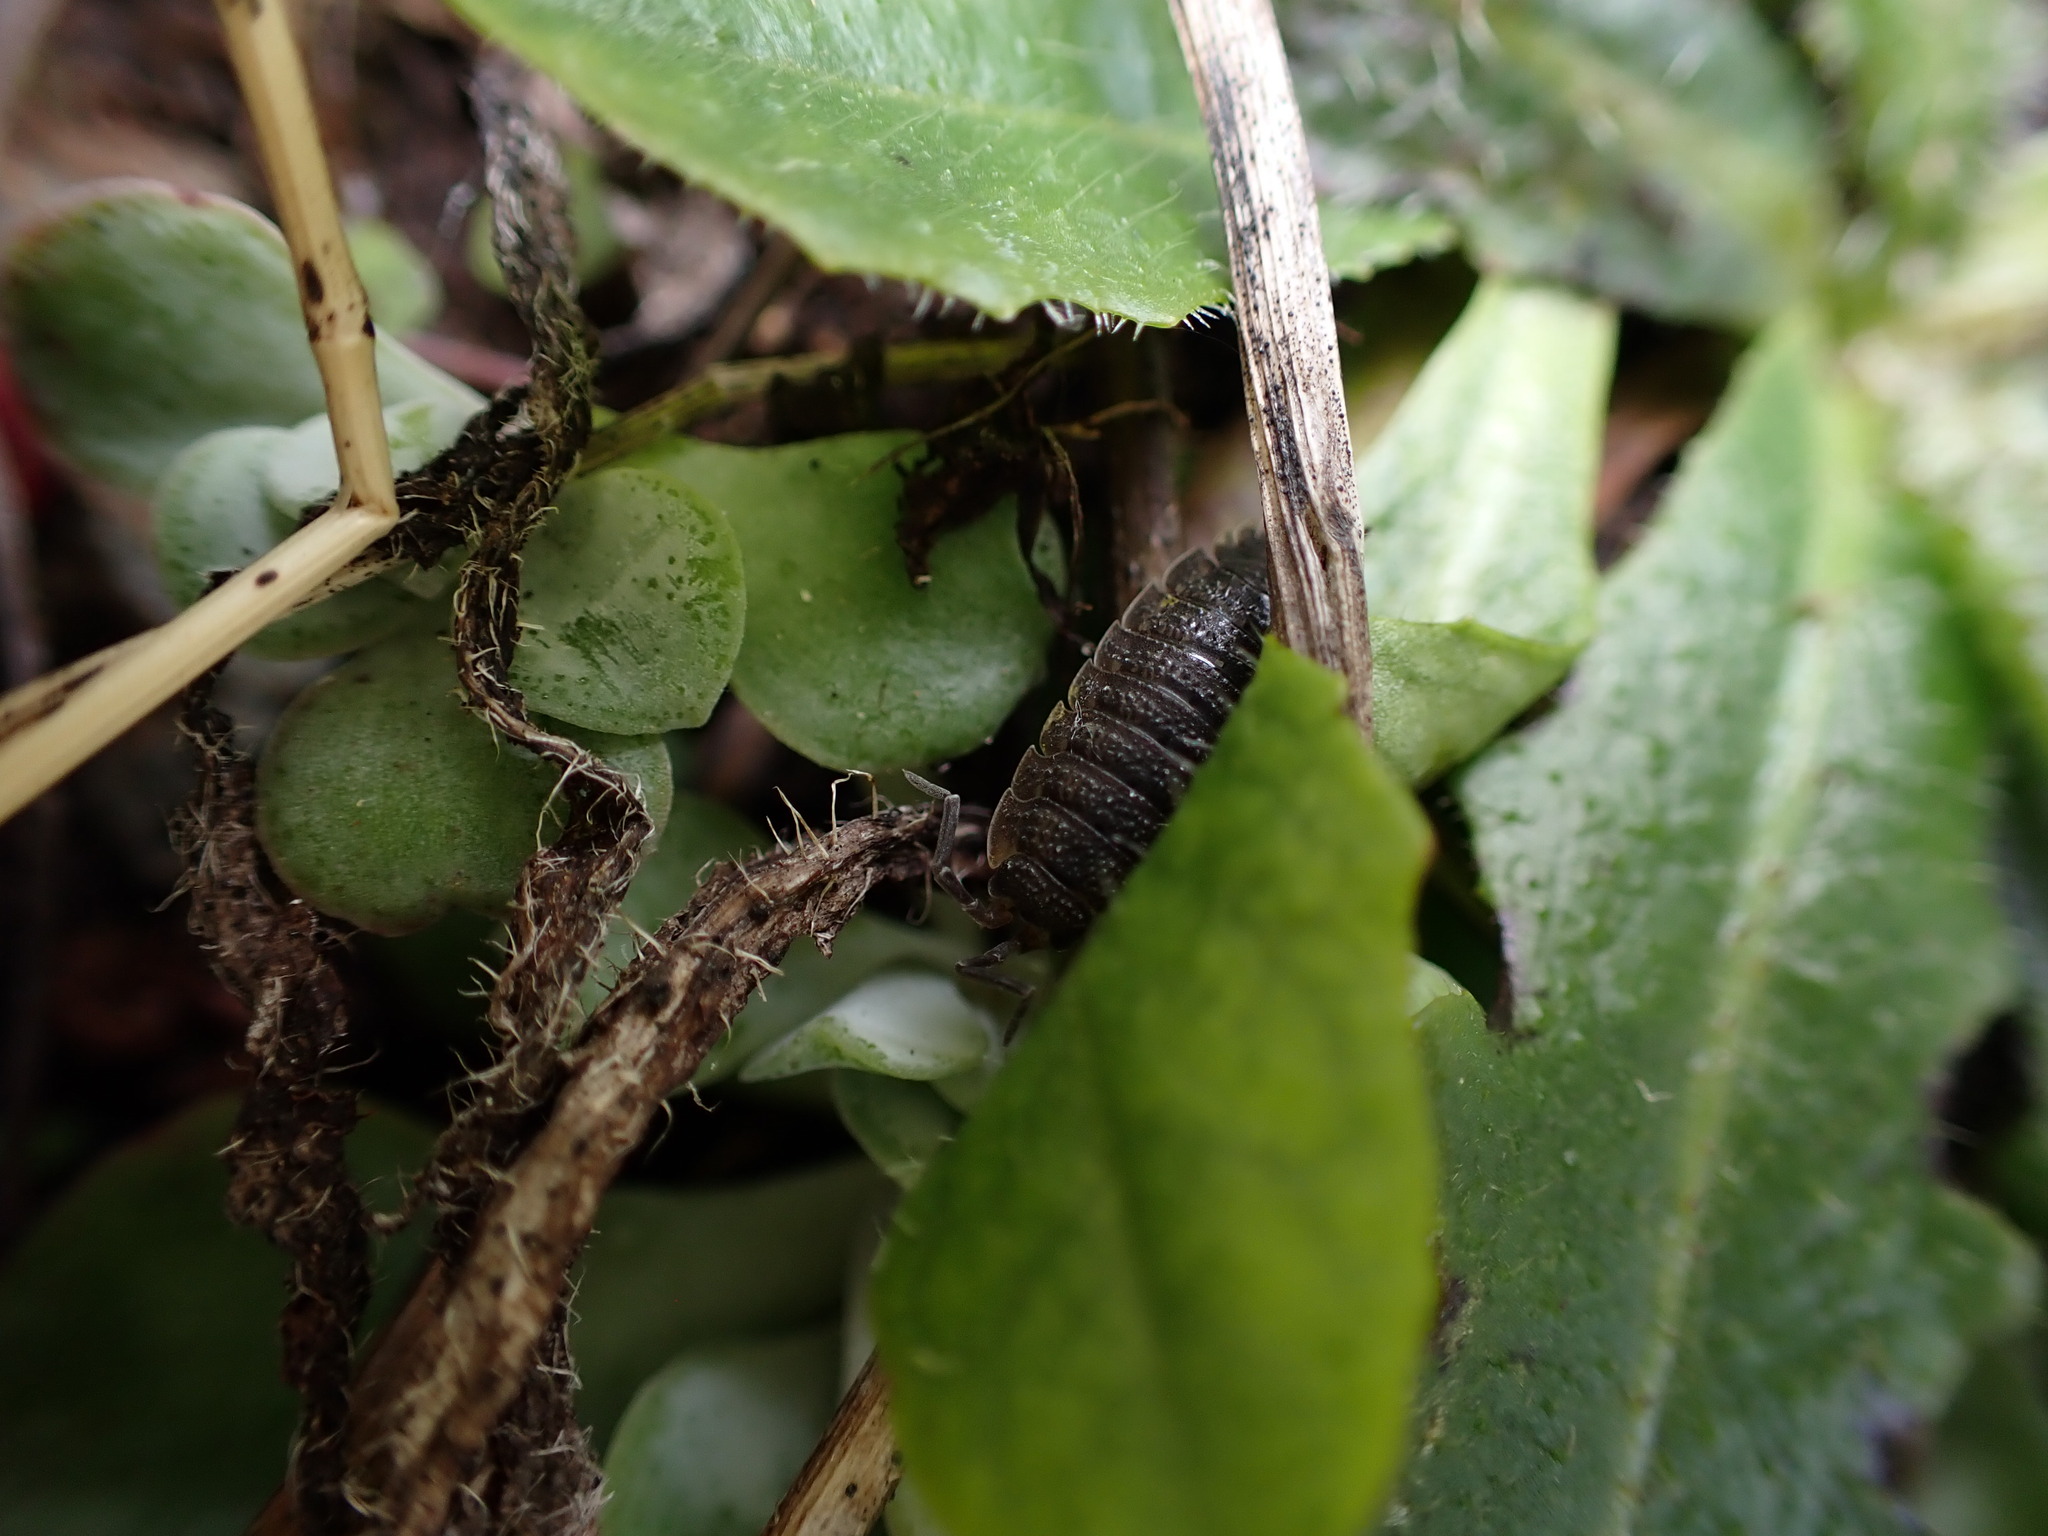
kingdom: Animalia
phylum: Arthropoda
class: Malacostraca
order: Isopoda
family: Porcellionidae
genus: Porcellio
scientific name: Porcellio scaber
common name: Common rough woodlouse
